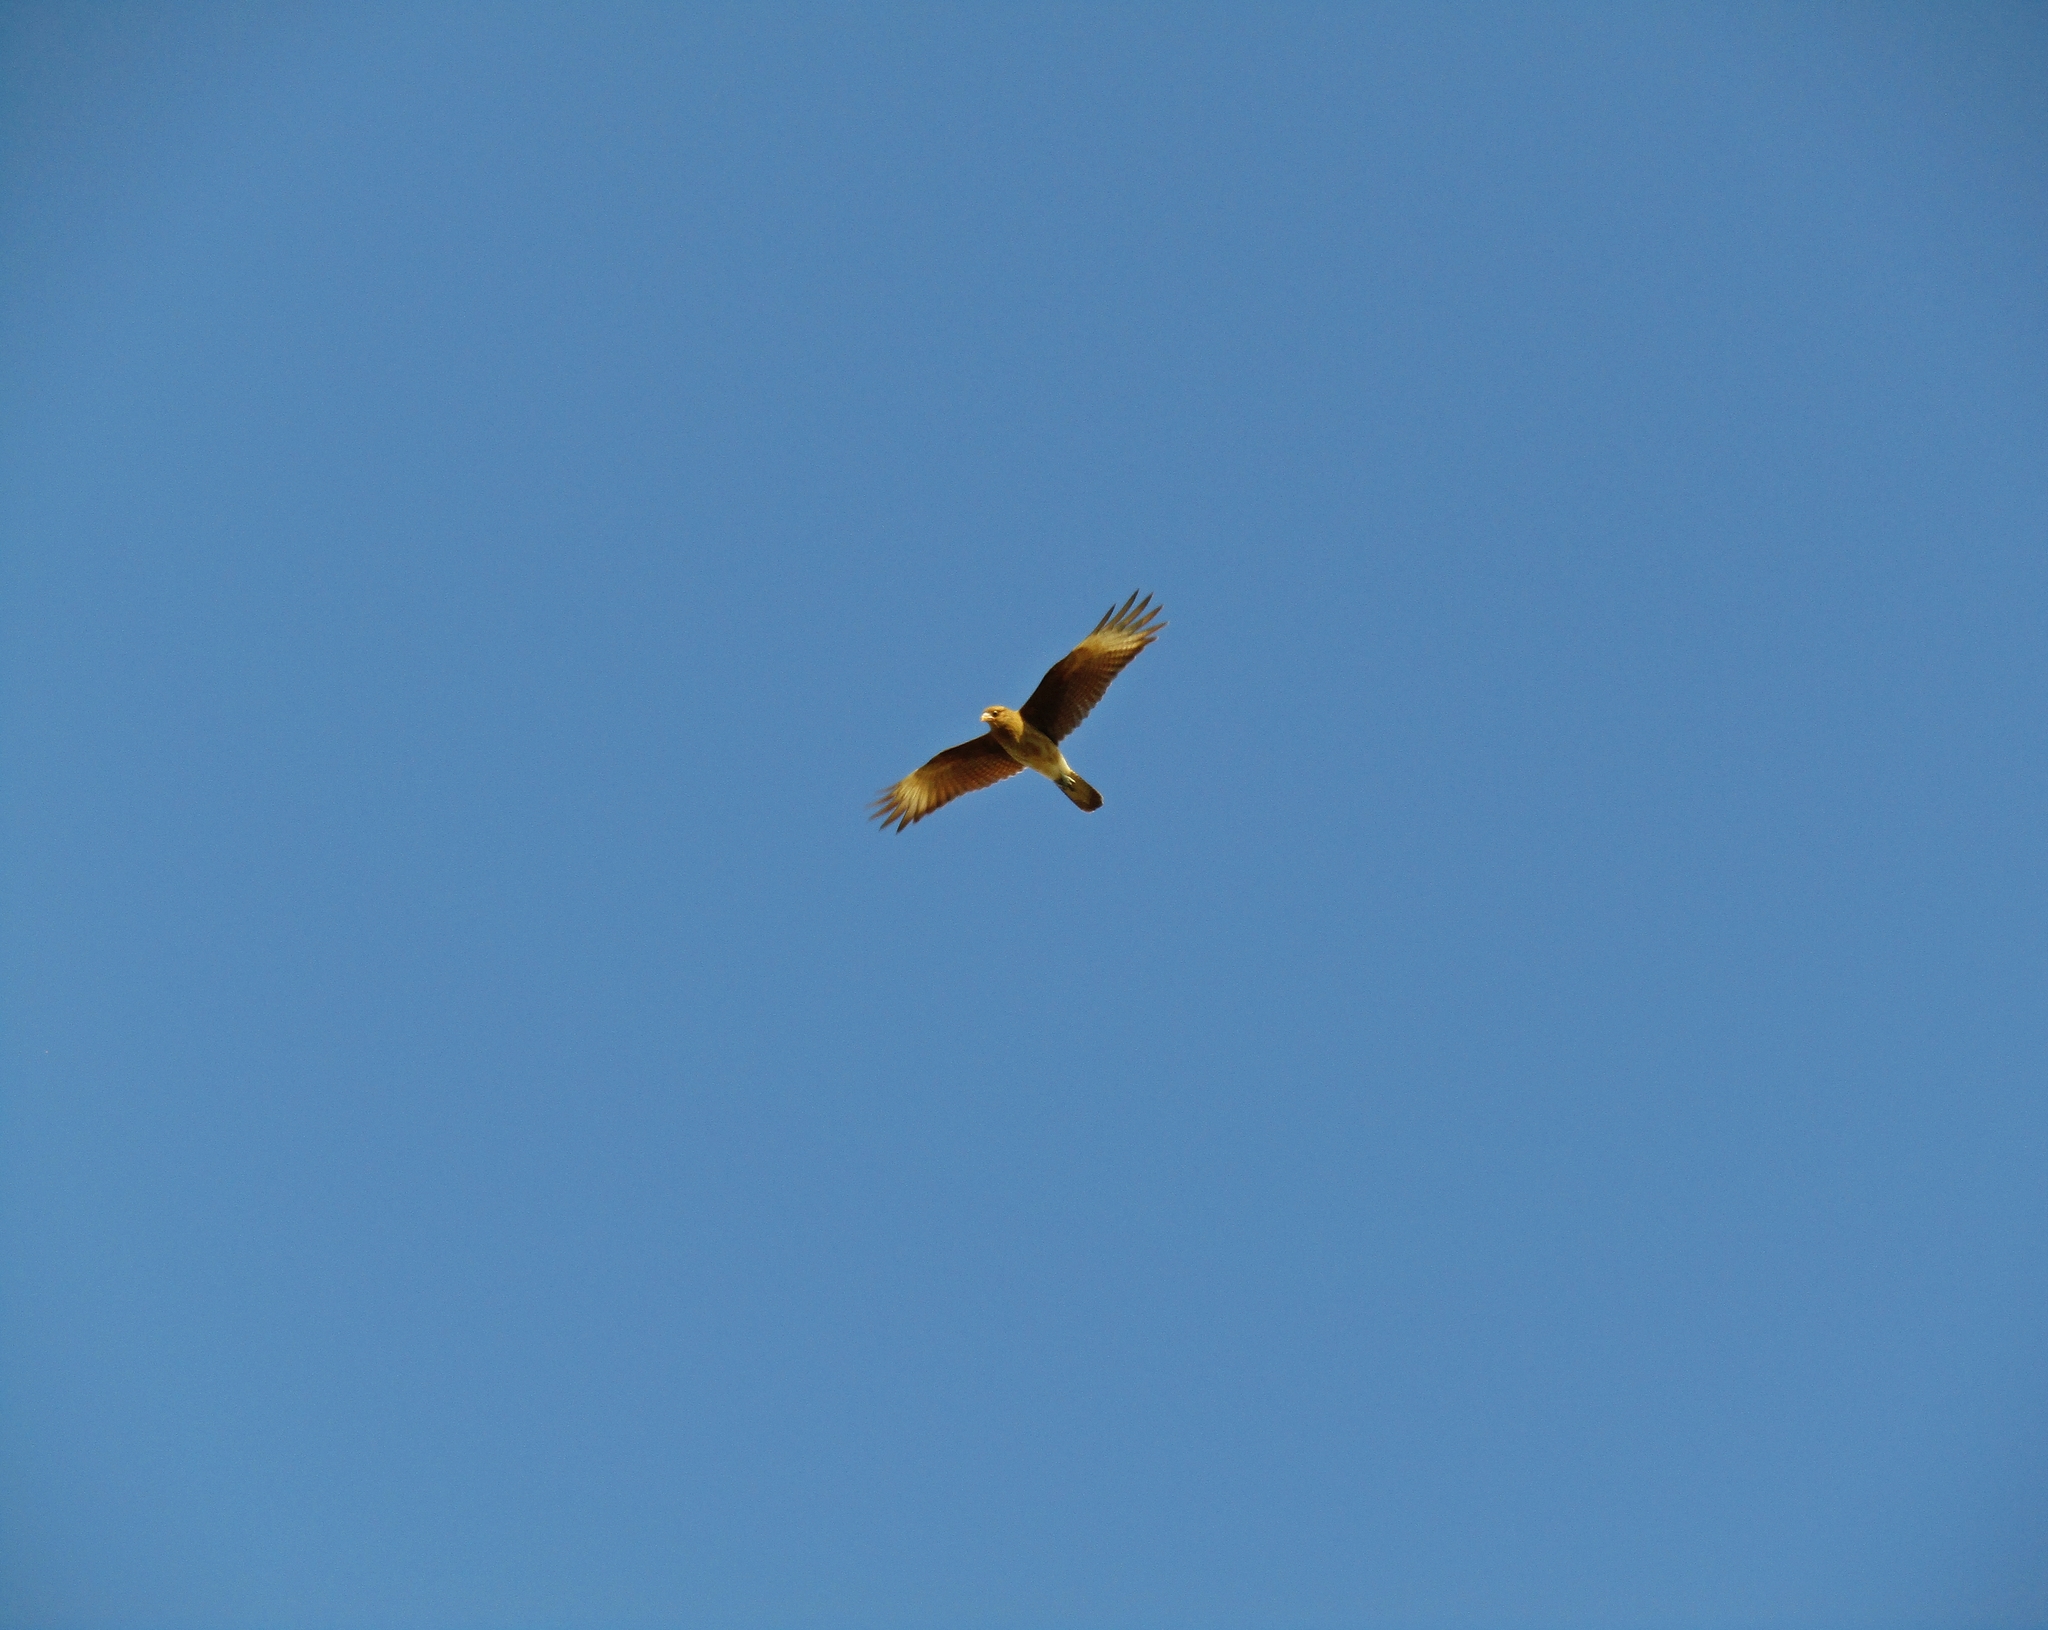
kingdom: Animalia
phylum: Chordata
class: Aves
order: Falconiformes
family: Falconidae
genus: Daptrius
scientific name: Daptrius
